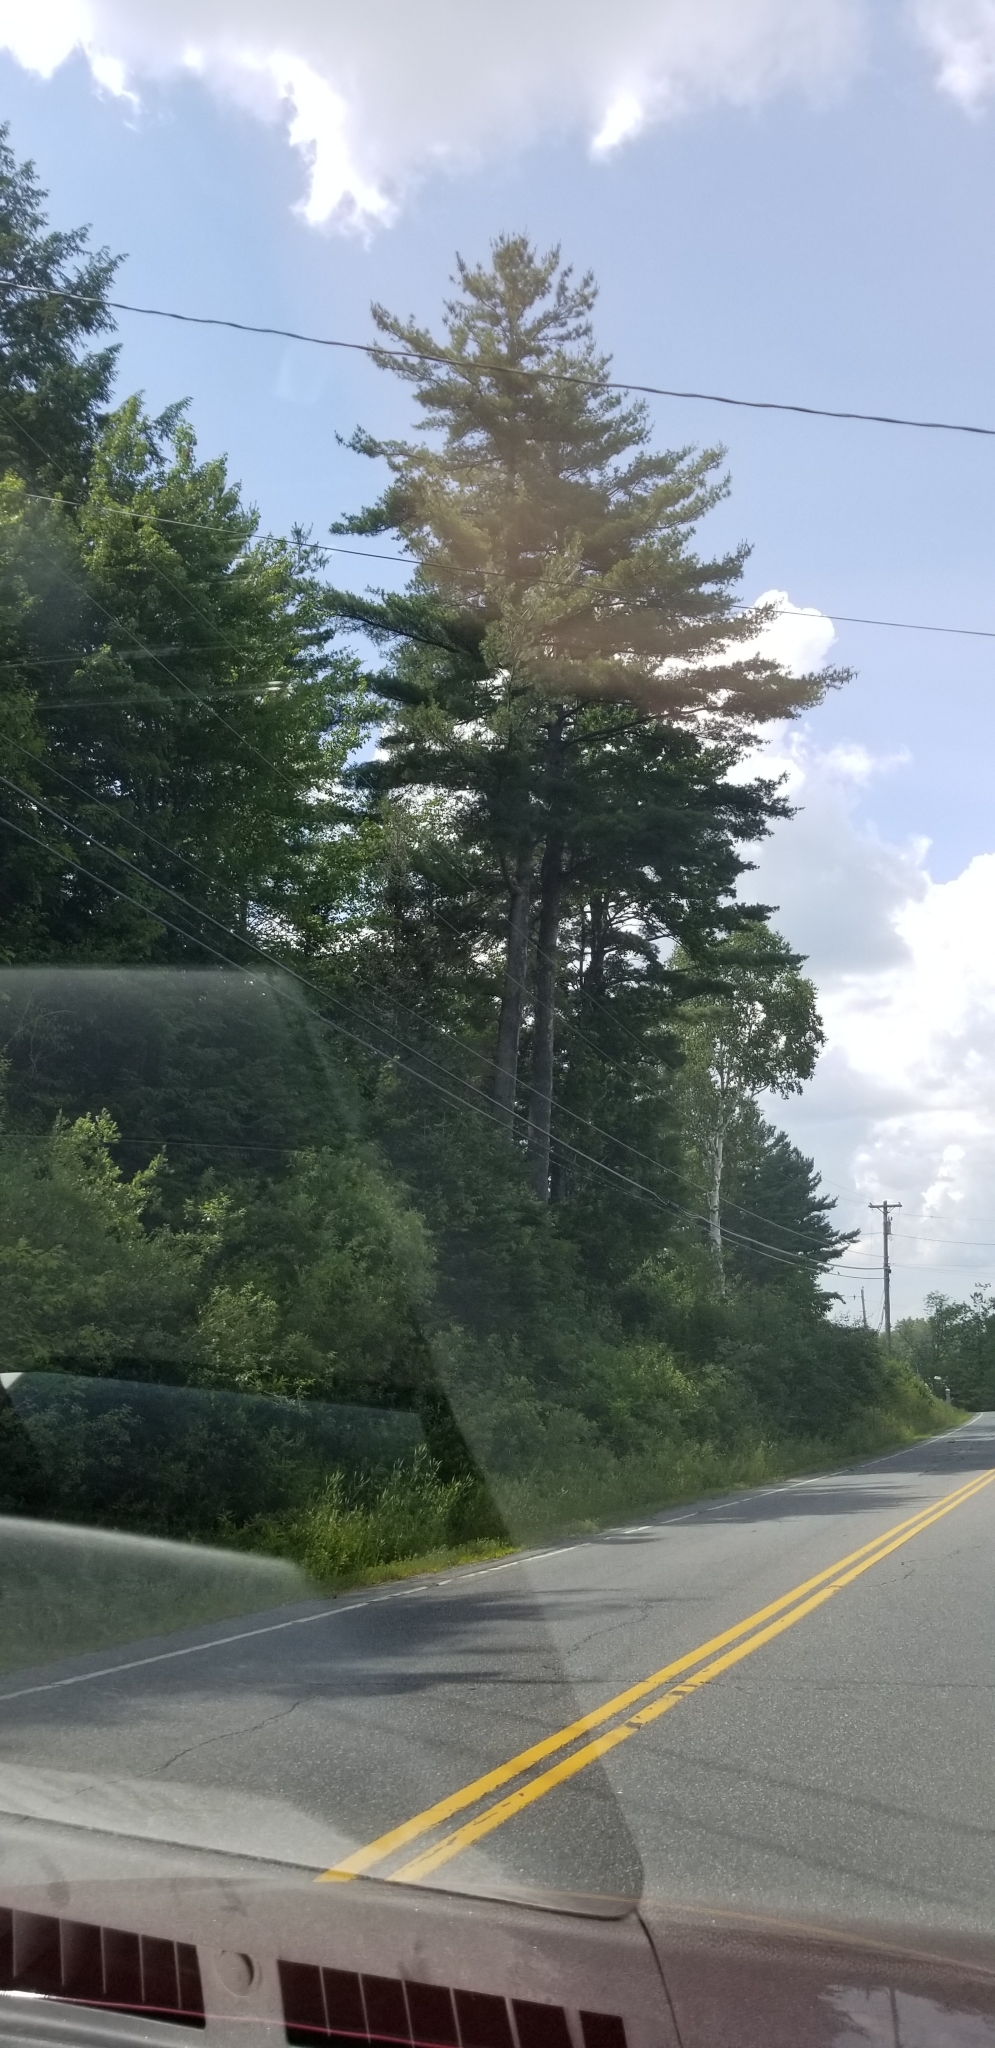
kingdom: Plantae
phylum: Tracheophyta
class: Pinopsida
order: Pinales
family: Pinaceae
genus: Pinus
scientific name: Pinus strobus
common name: Weymouth pine
